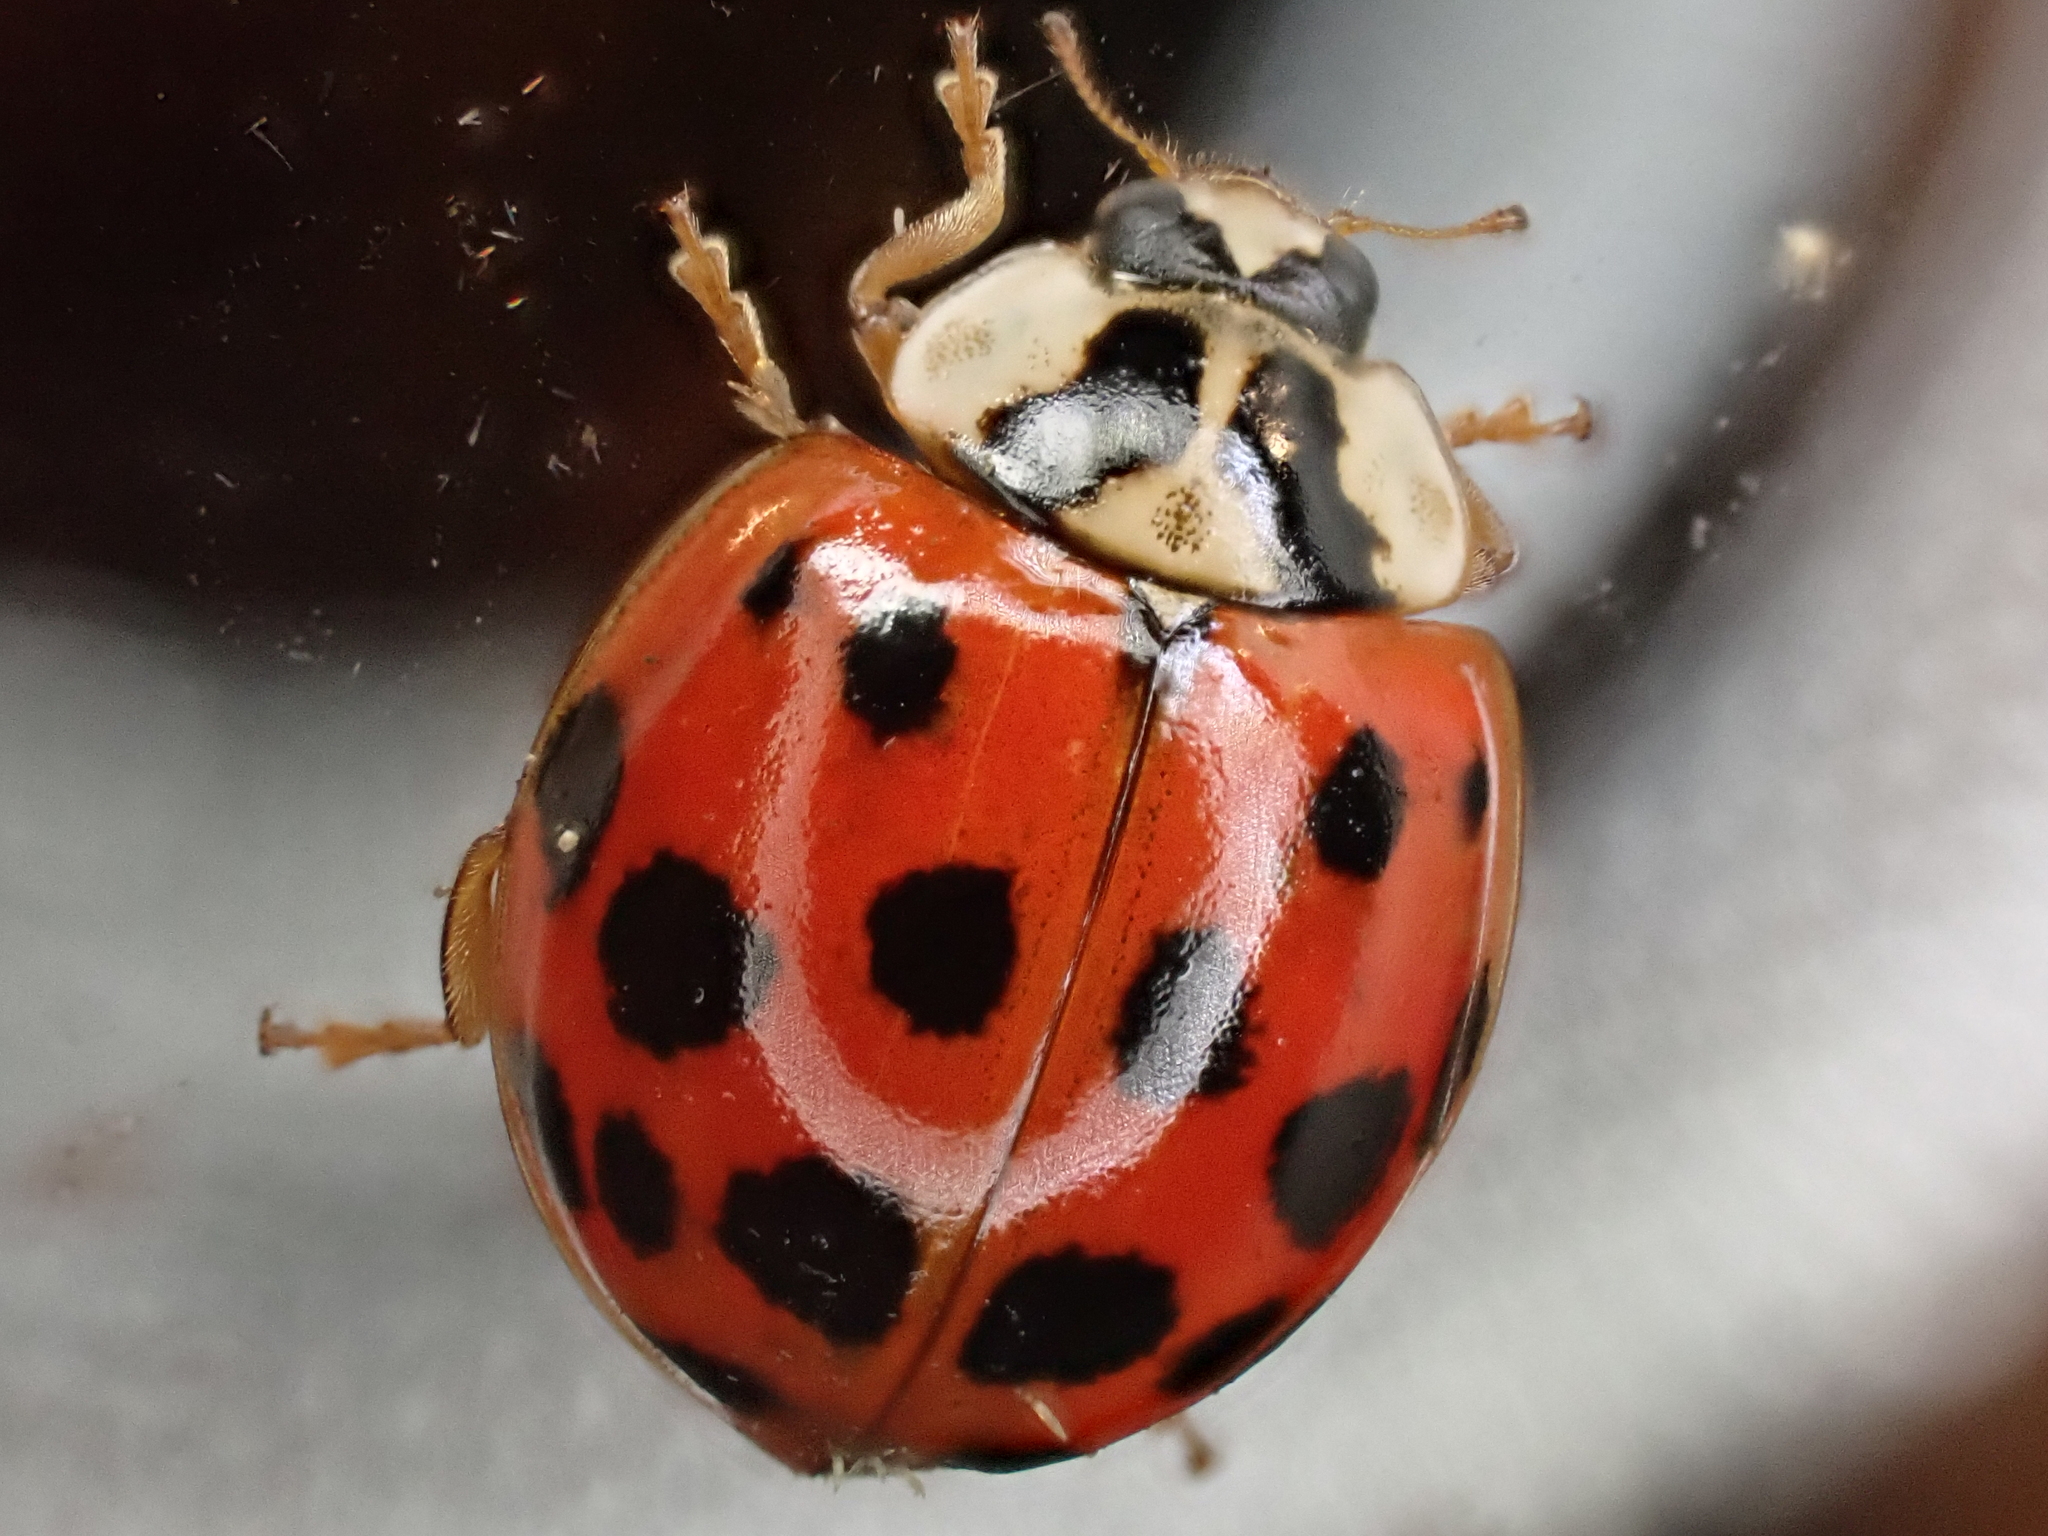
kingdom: Animalia
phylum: Arthropoda
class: Insecta
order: Coleoptera
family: Coccinellidae
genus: Harmonia
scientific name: Harmonia axyridis
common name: Harlequin ladybird
